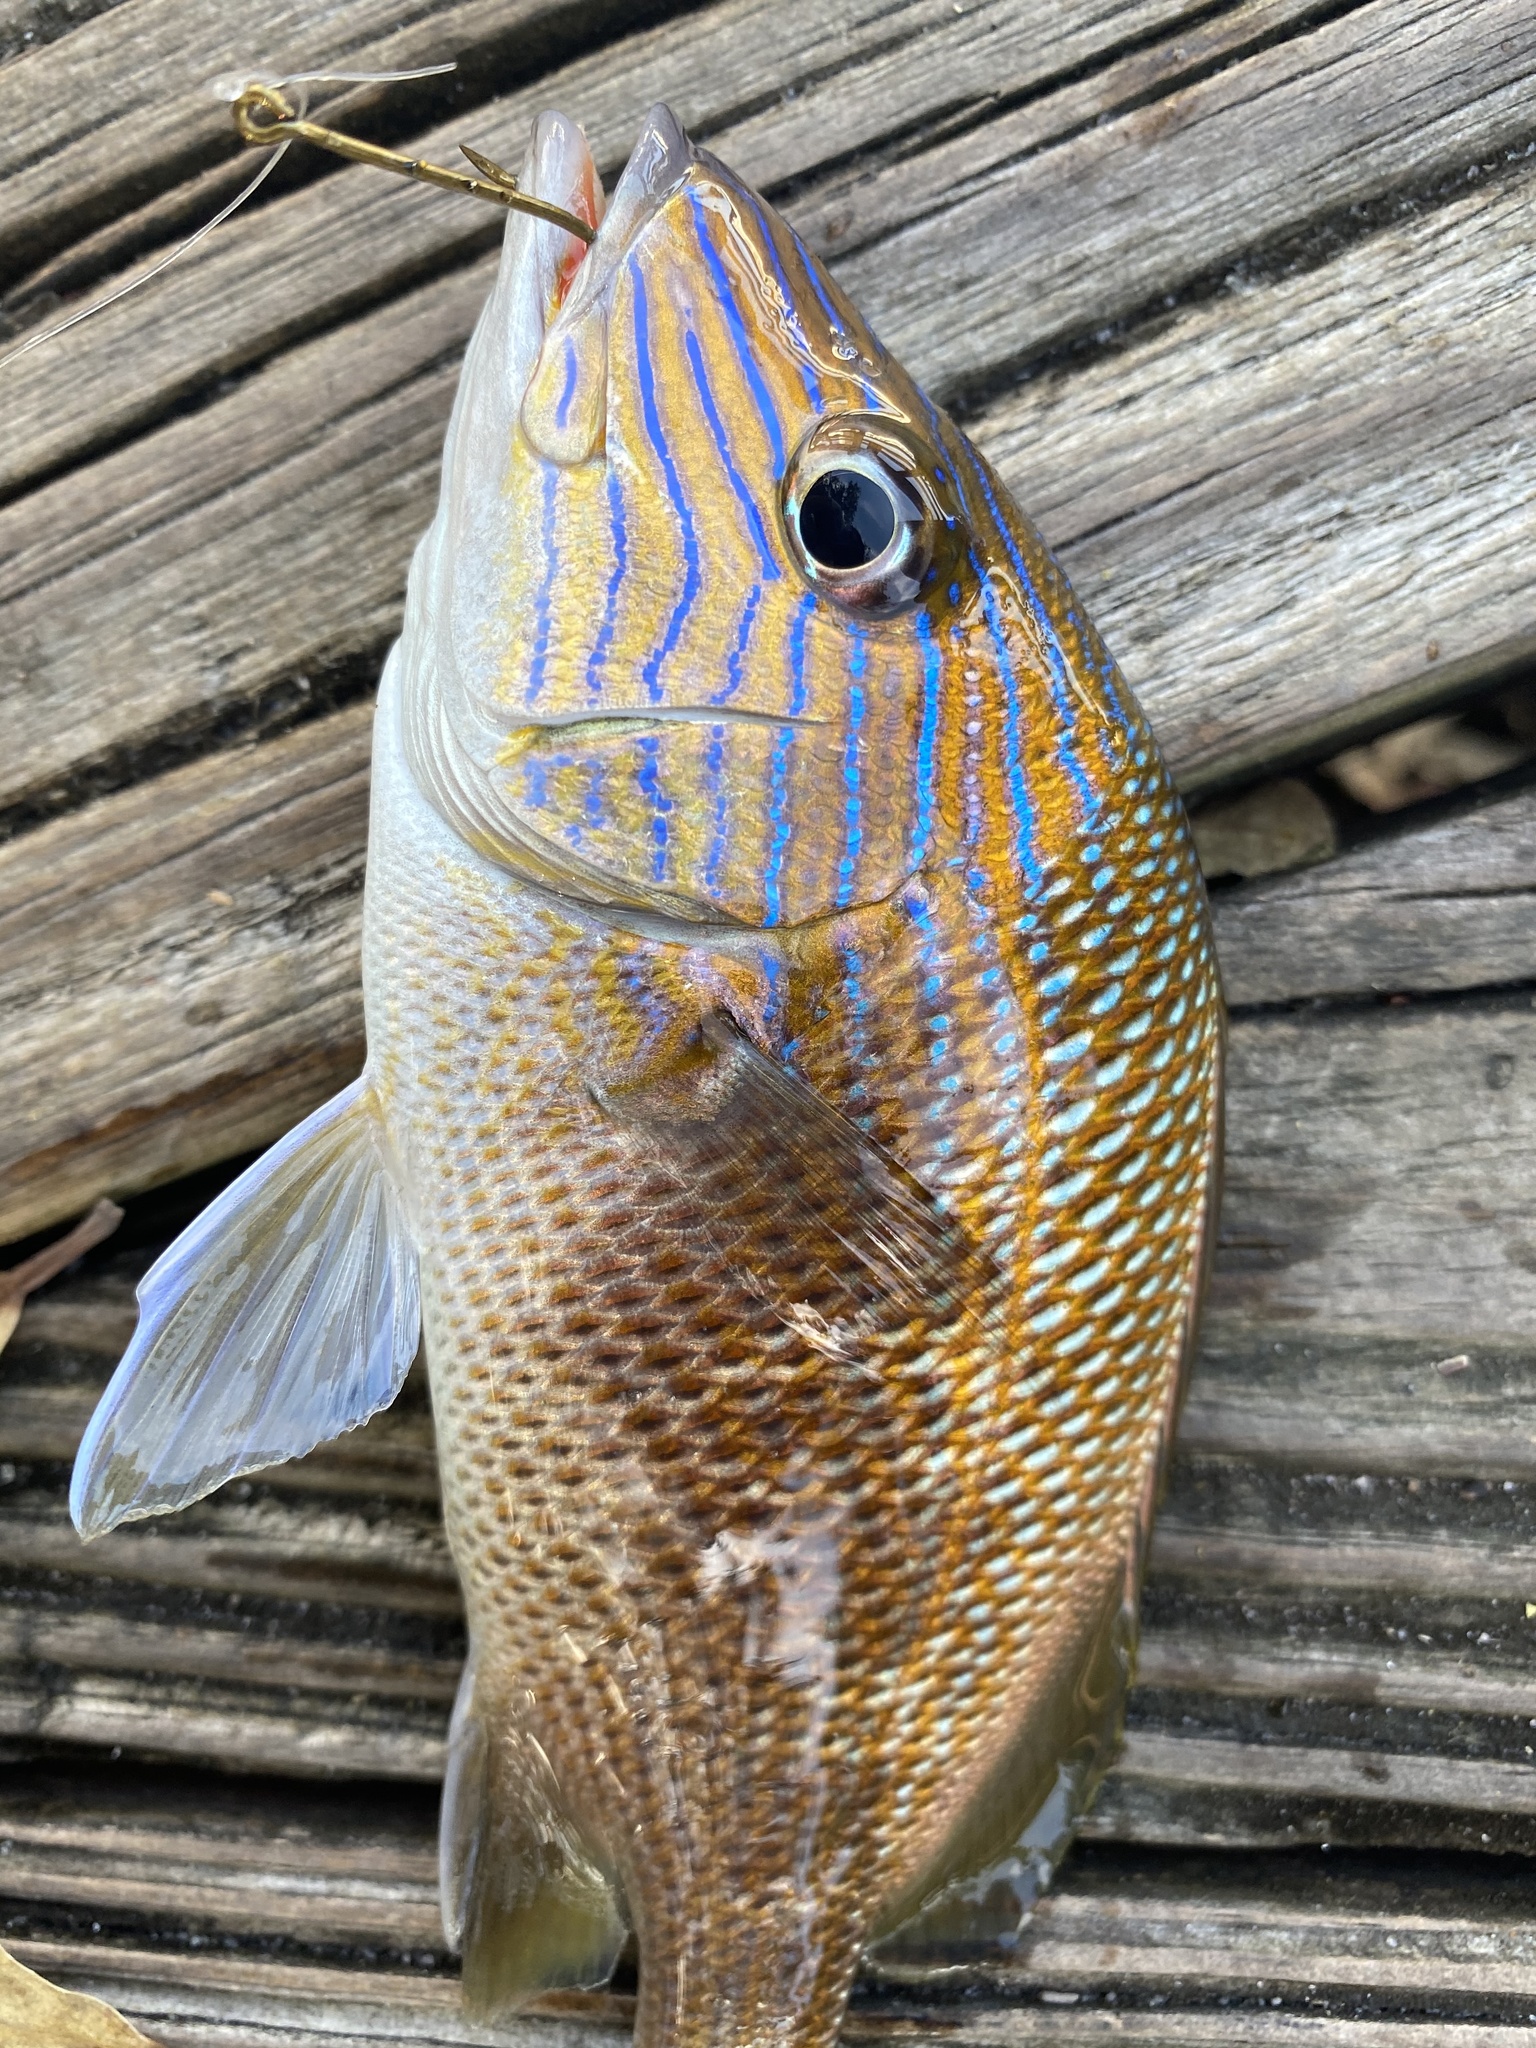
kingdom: Animalia
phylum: Chordata
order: Perciformes
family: Haemulidae
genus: Haemulon
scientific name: Haemulon plumierii
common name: White grunt
